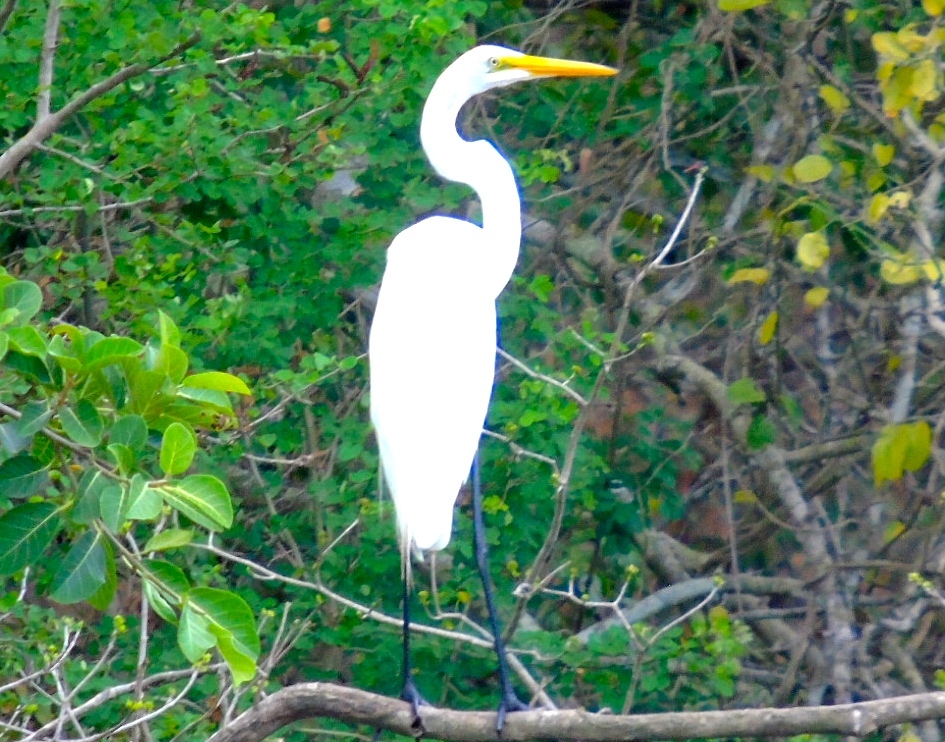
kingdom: Animalia
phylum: Chordata
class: Aves
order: Pelecaniformes
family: Ardeidae
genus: Ardea
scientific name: Ardea alba
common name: Great egret
